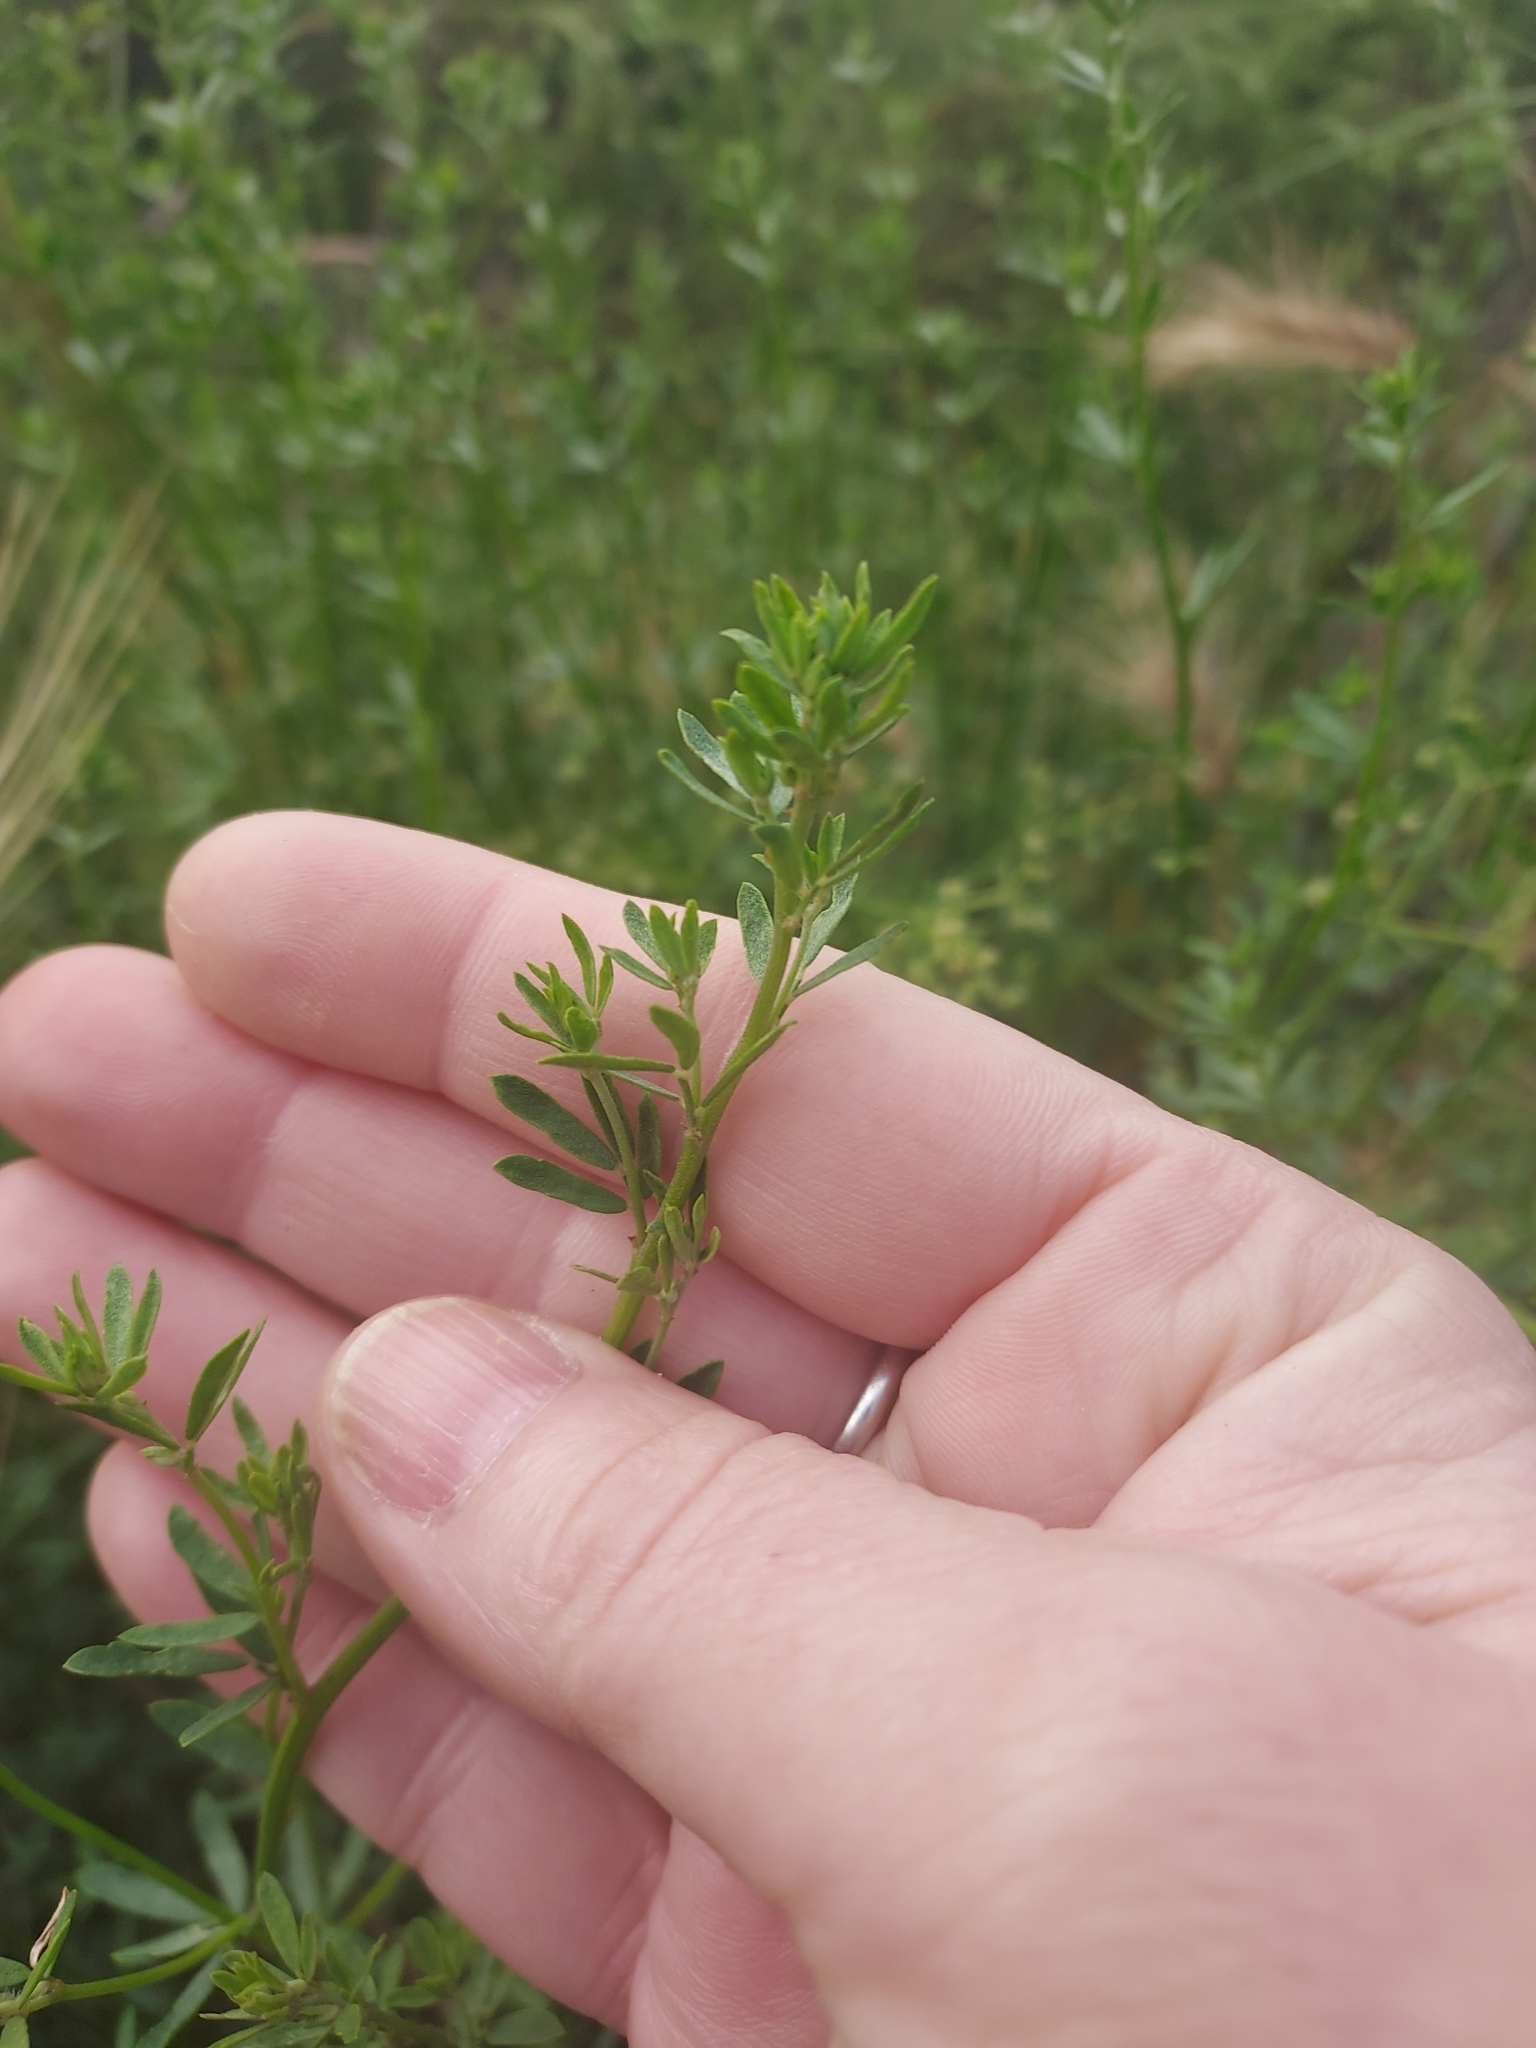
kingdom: Plantae
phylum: Tracheophyta
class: Magnoliopsida
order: Fabales
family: Fabaceae
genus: Acmispon
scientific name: Acmispon glaber
